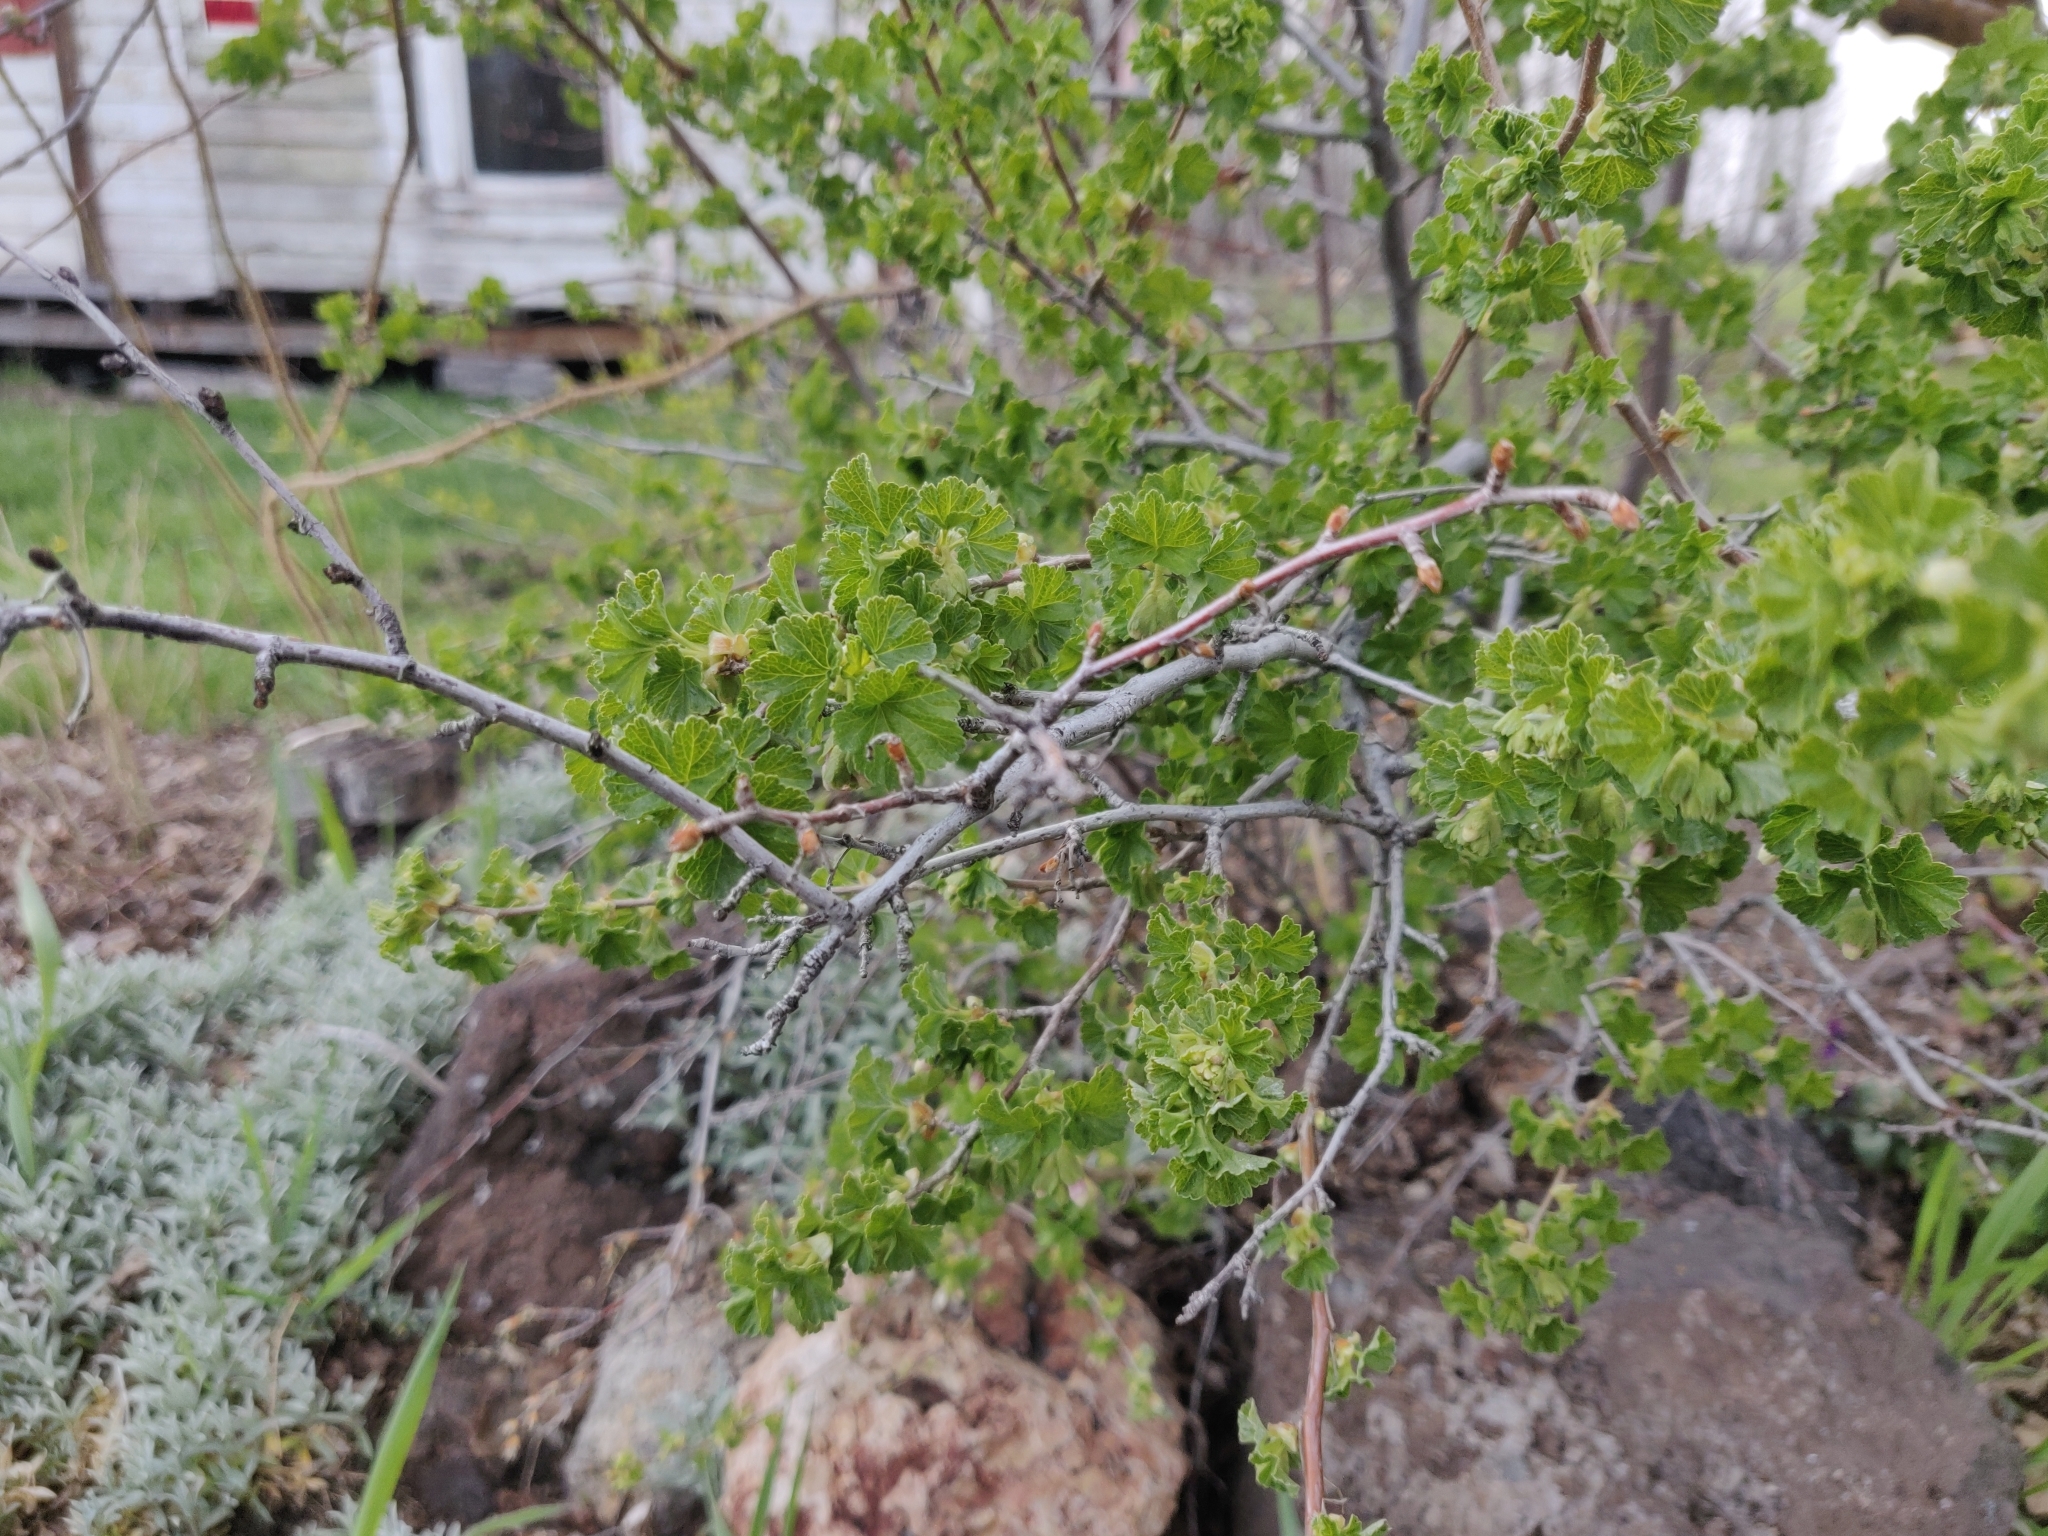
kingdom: Plantae
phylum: Tracheophyta
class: Magnoliopsida
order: Saxifragales
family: Grossulariaceae
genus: Ribes
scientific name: Ribes cereum
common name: Wax currant
